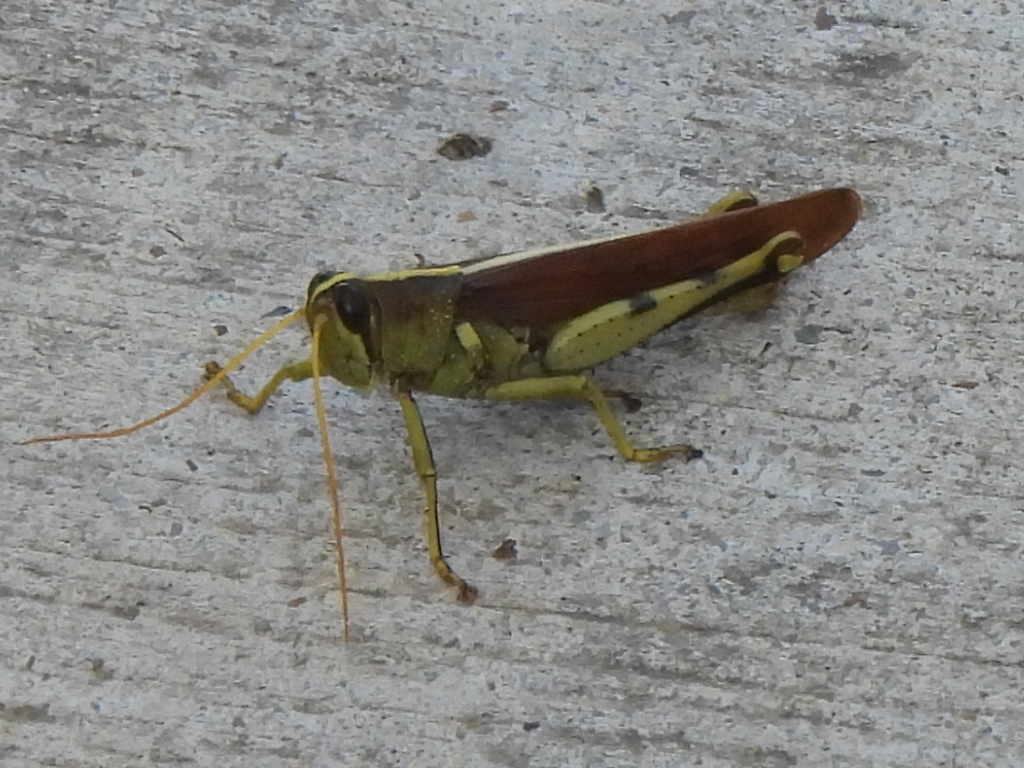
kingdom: Animalia
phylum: Arthropoda
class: Insecta
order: Orthoptera
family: Acrididae
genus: Schistocerca
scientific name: Schistocerca obscura
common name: Obscure bird grasshopper
